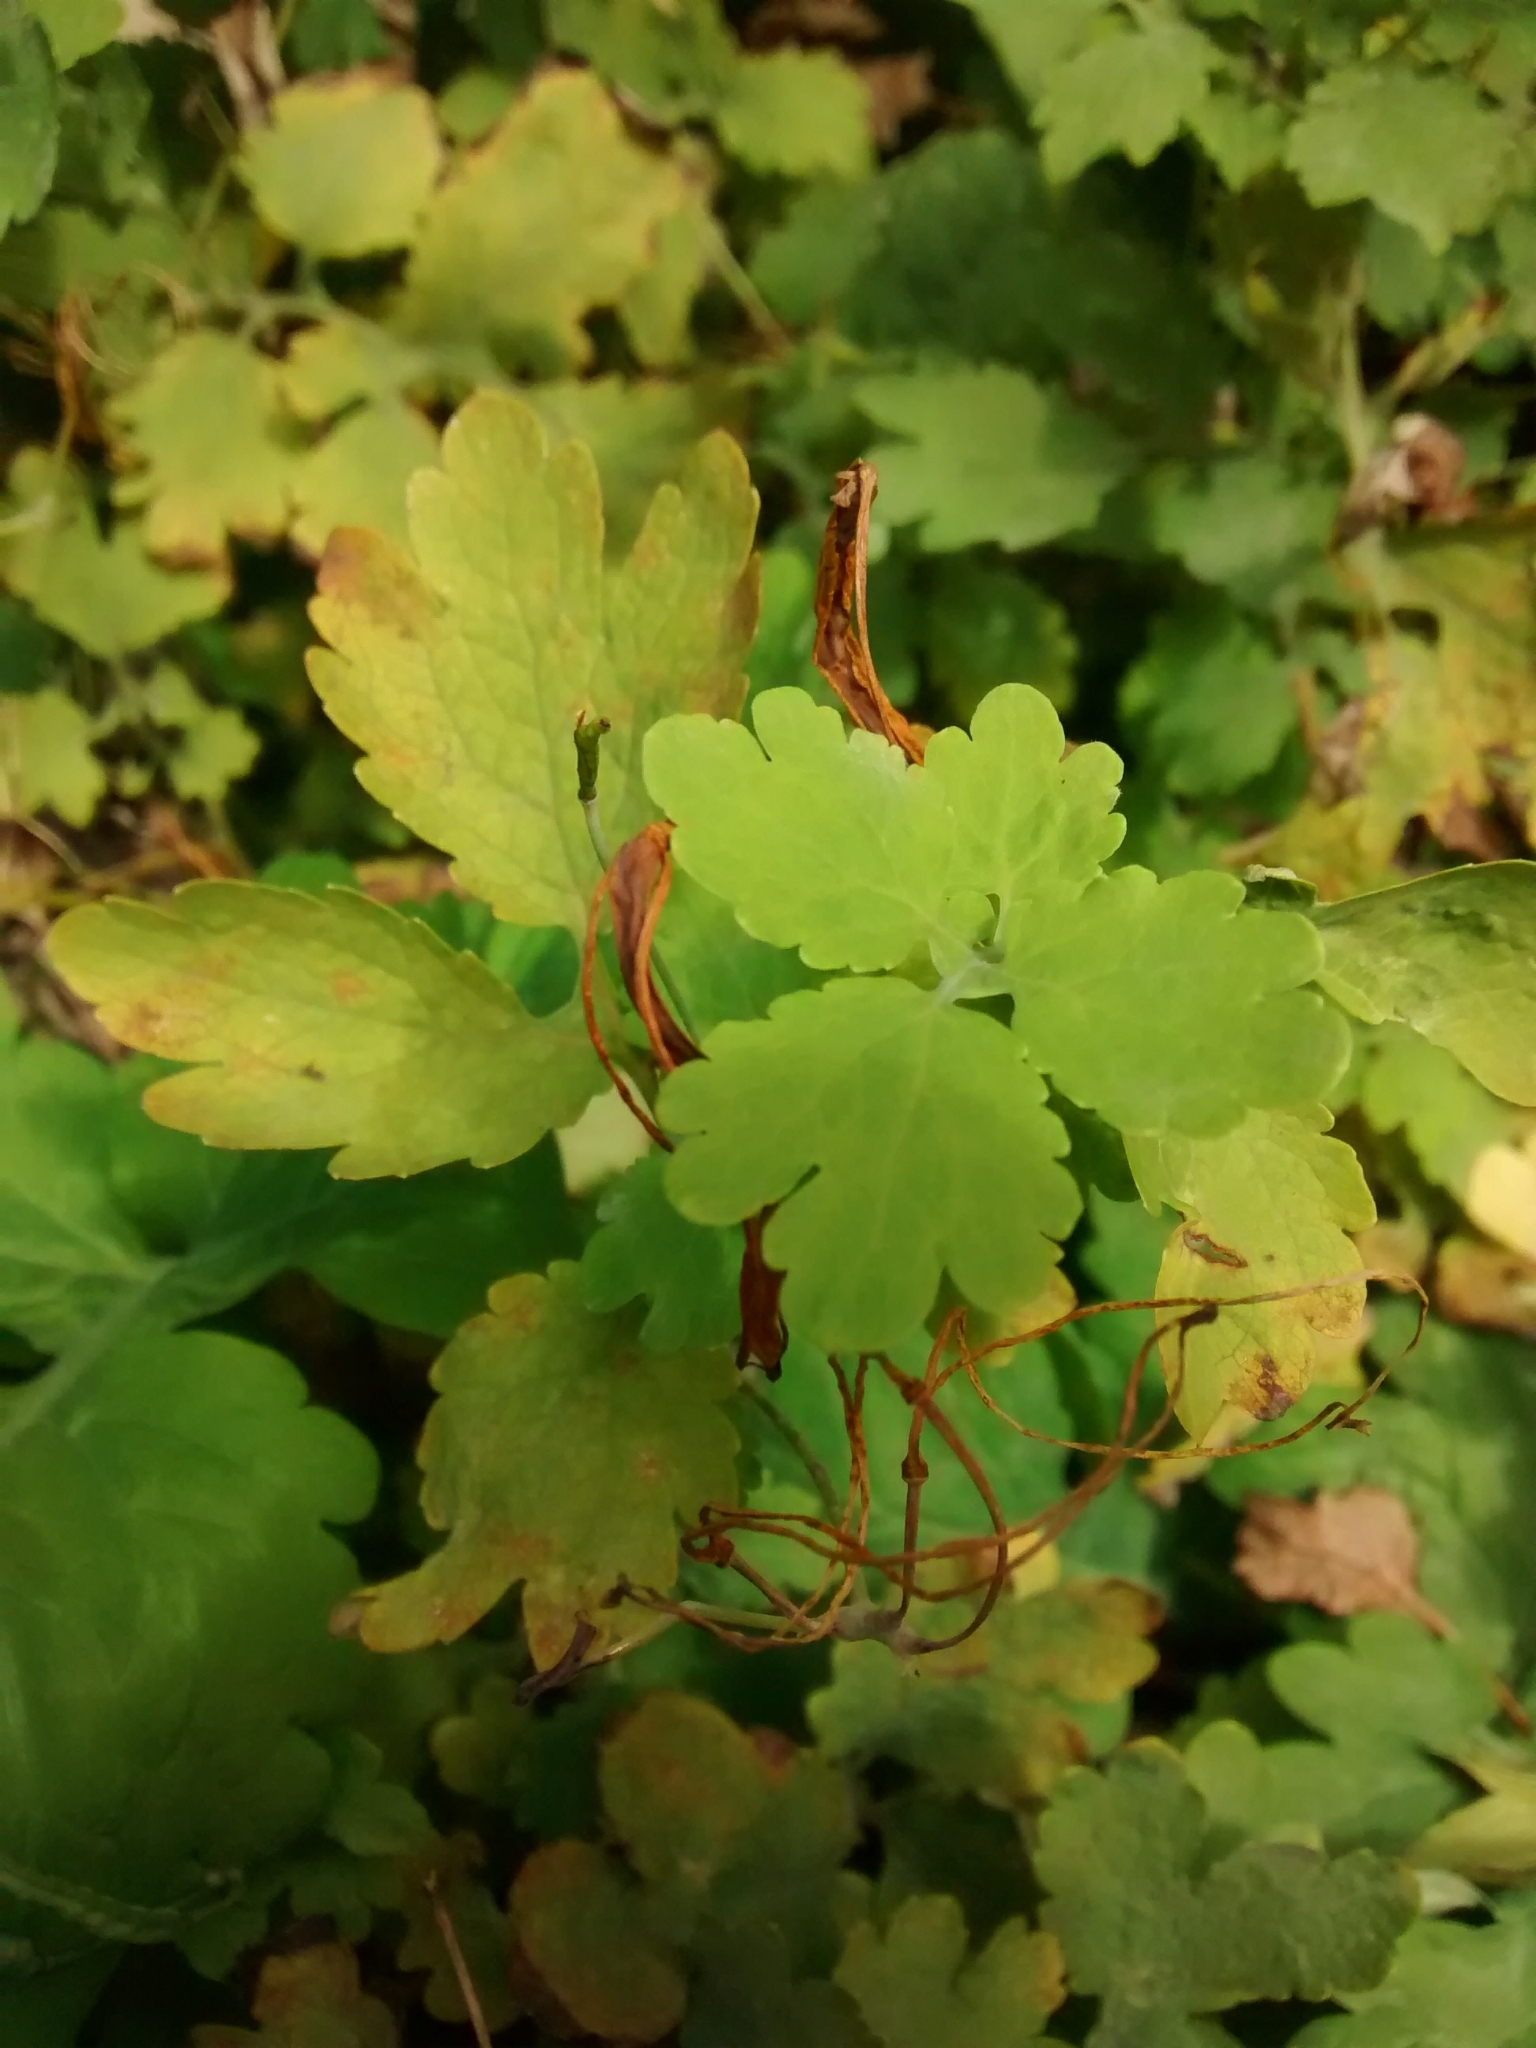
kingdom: Plantae
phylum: Tracheophyta
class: Magnoliopsida
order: Ranunculales
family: Papaveraceae
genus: Chelidonium
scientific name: Chelidonium majus
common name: Greater celandine
